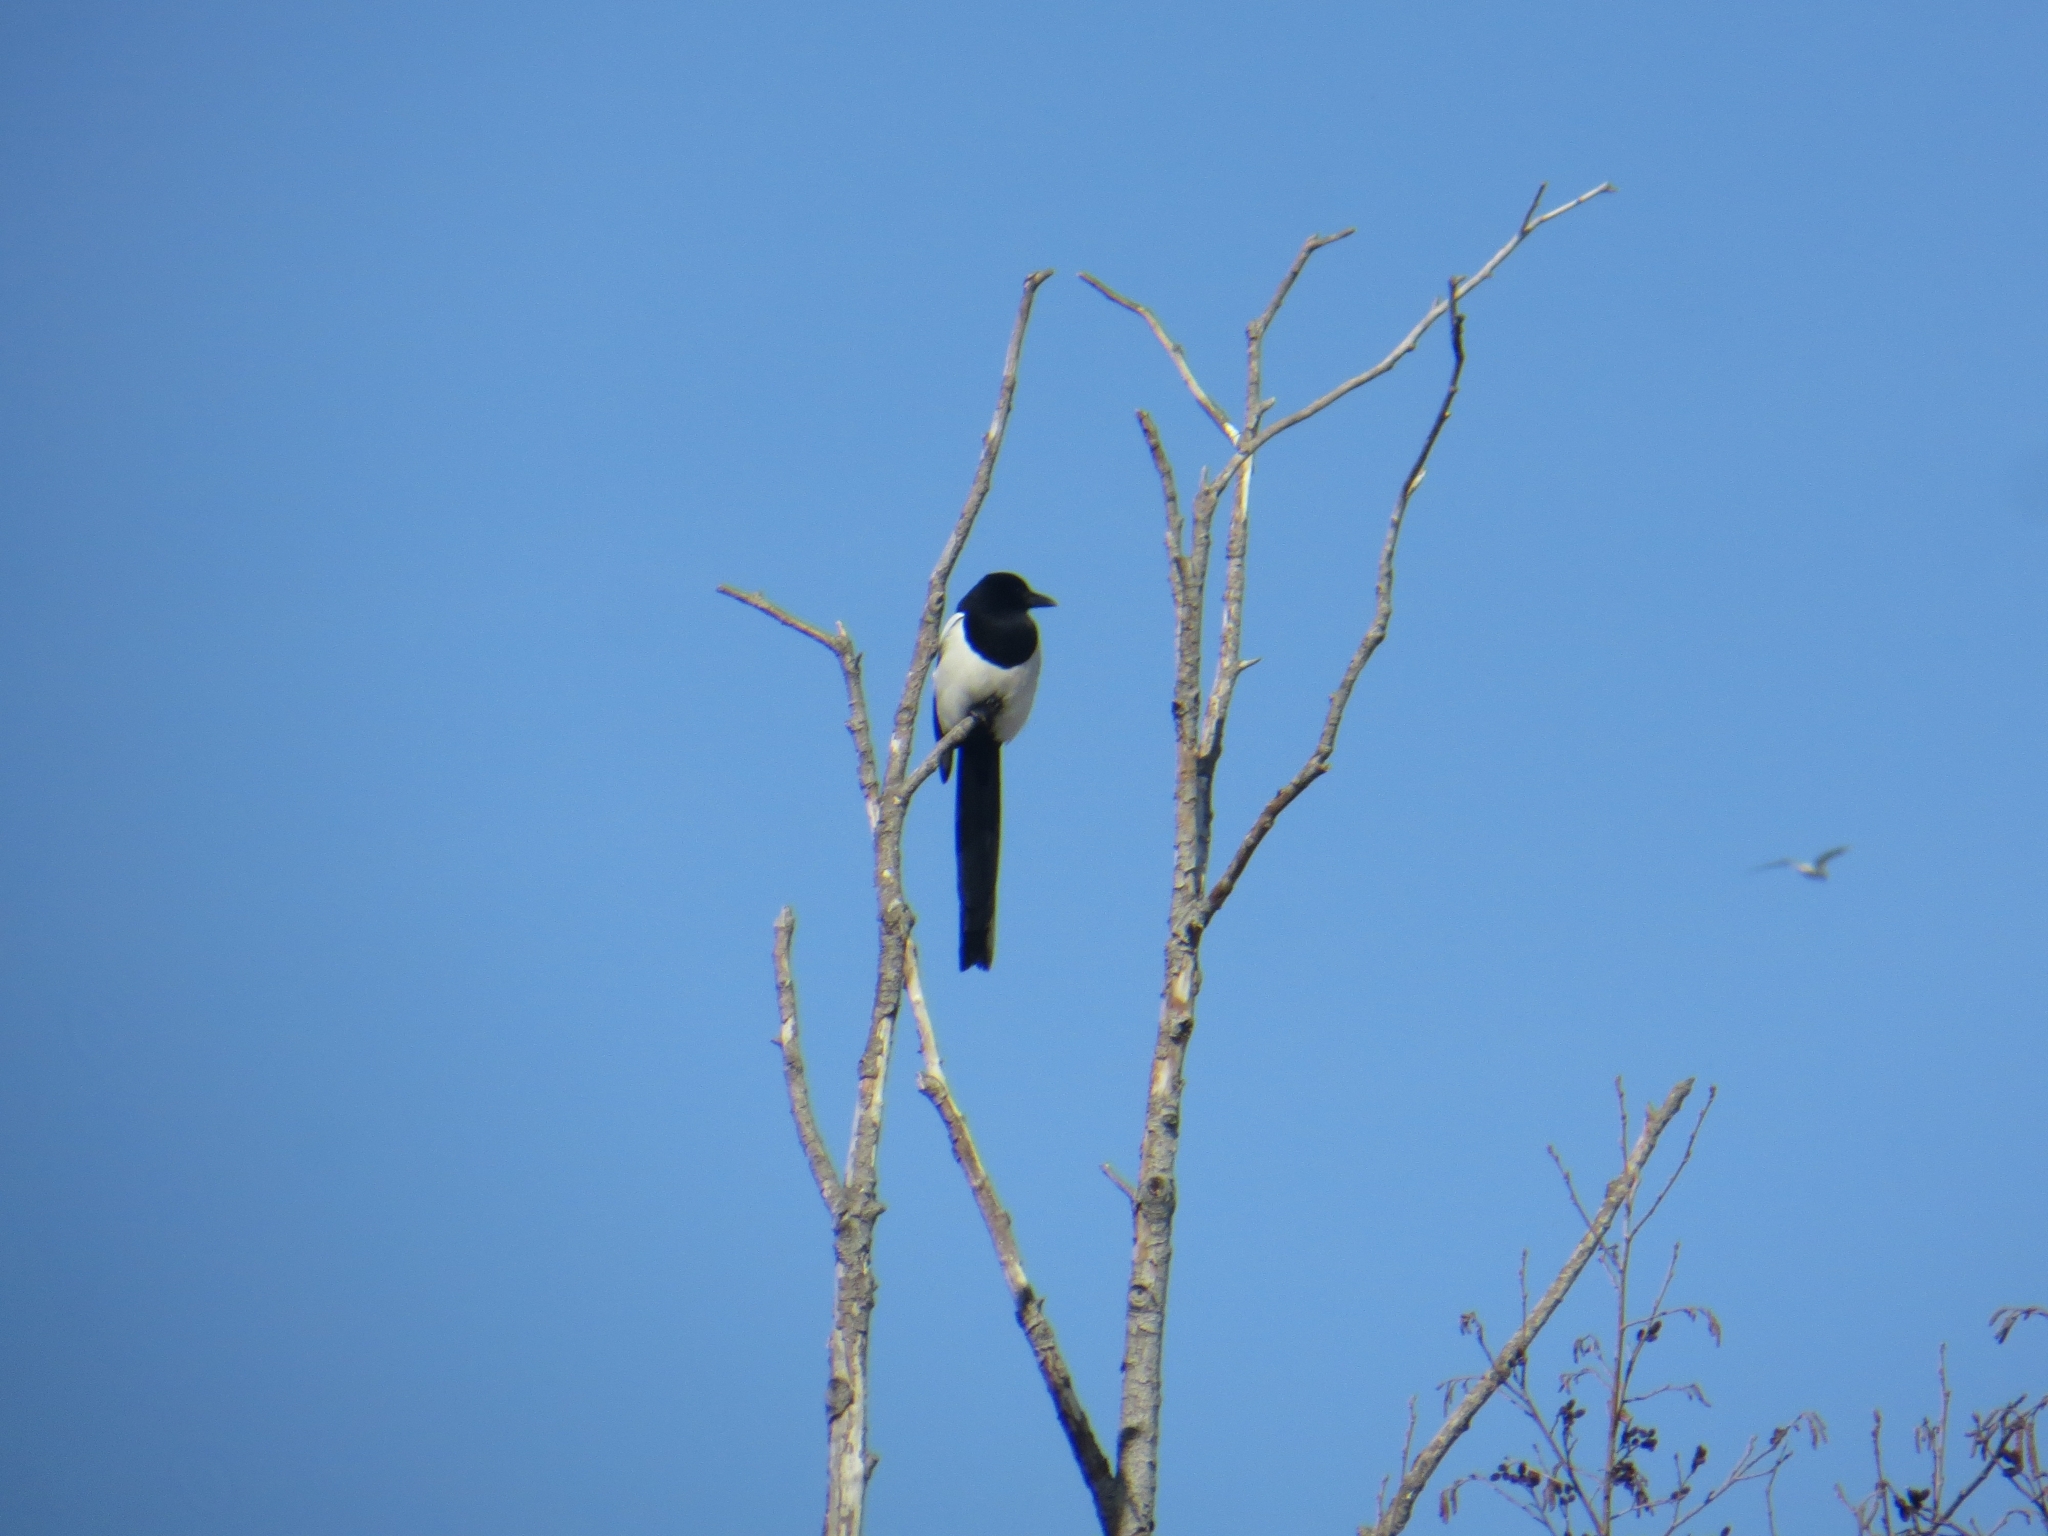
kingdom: Animalia
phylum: Chordata
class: Aves
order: Passeriformes
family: Corvidae
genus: Pica
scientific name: Pica pica
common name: Eurasian magpie
